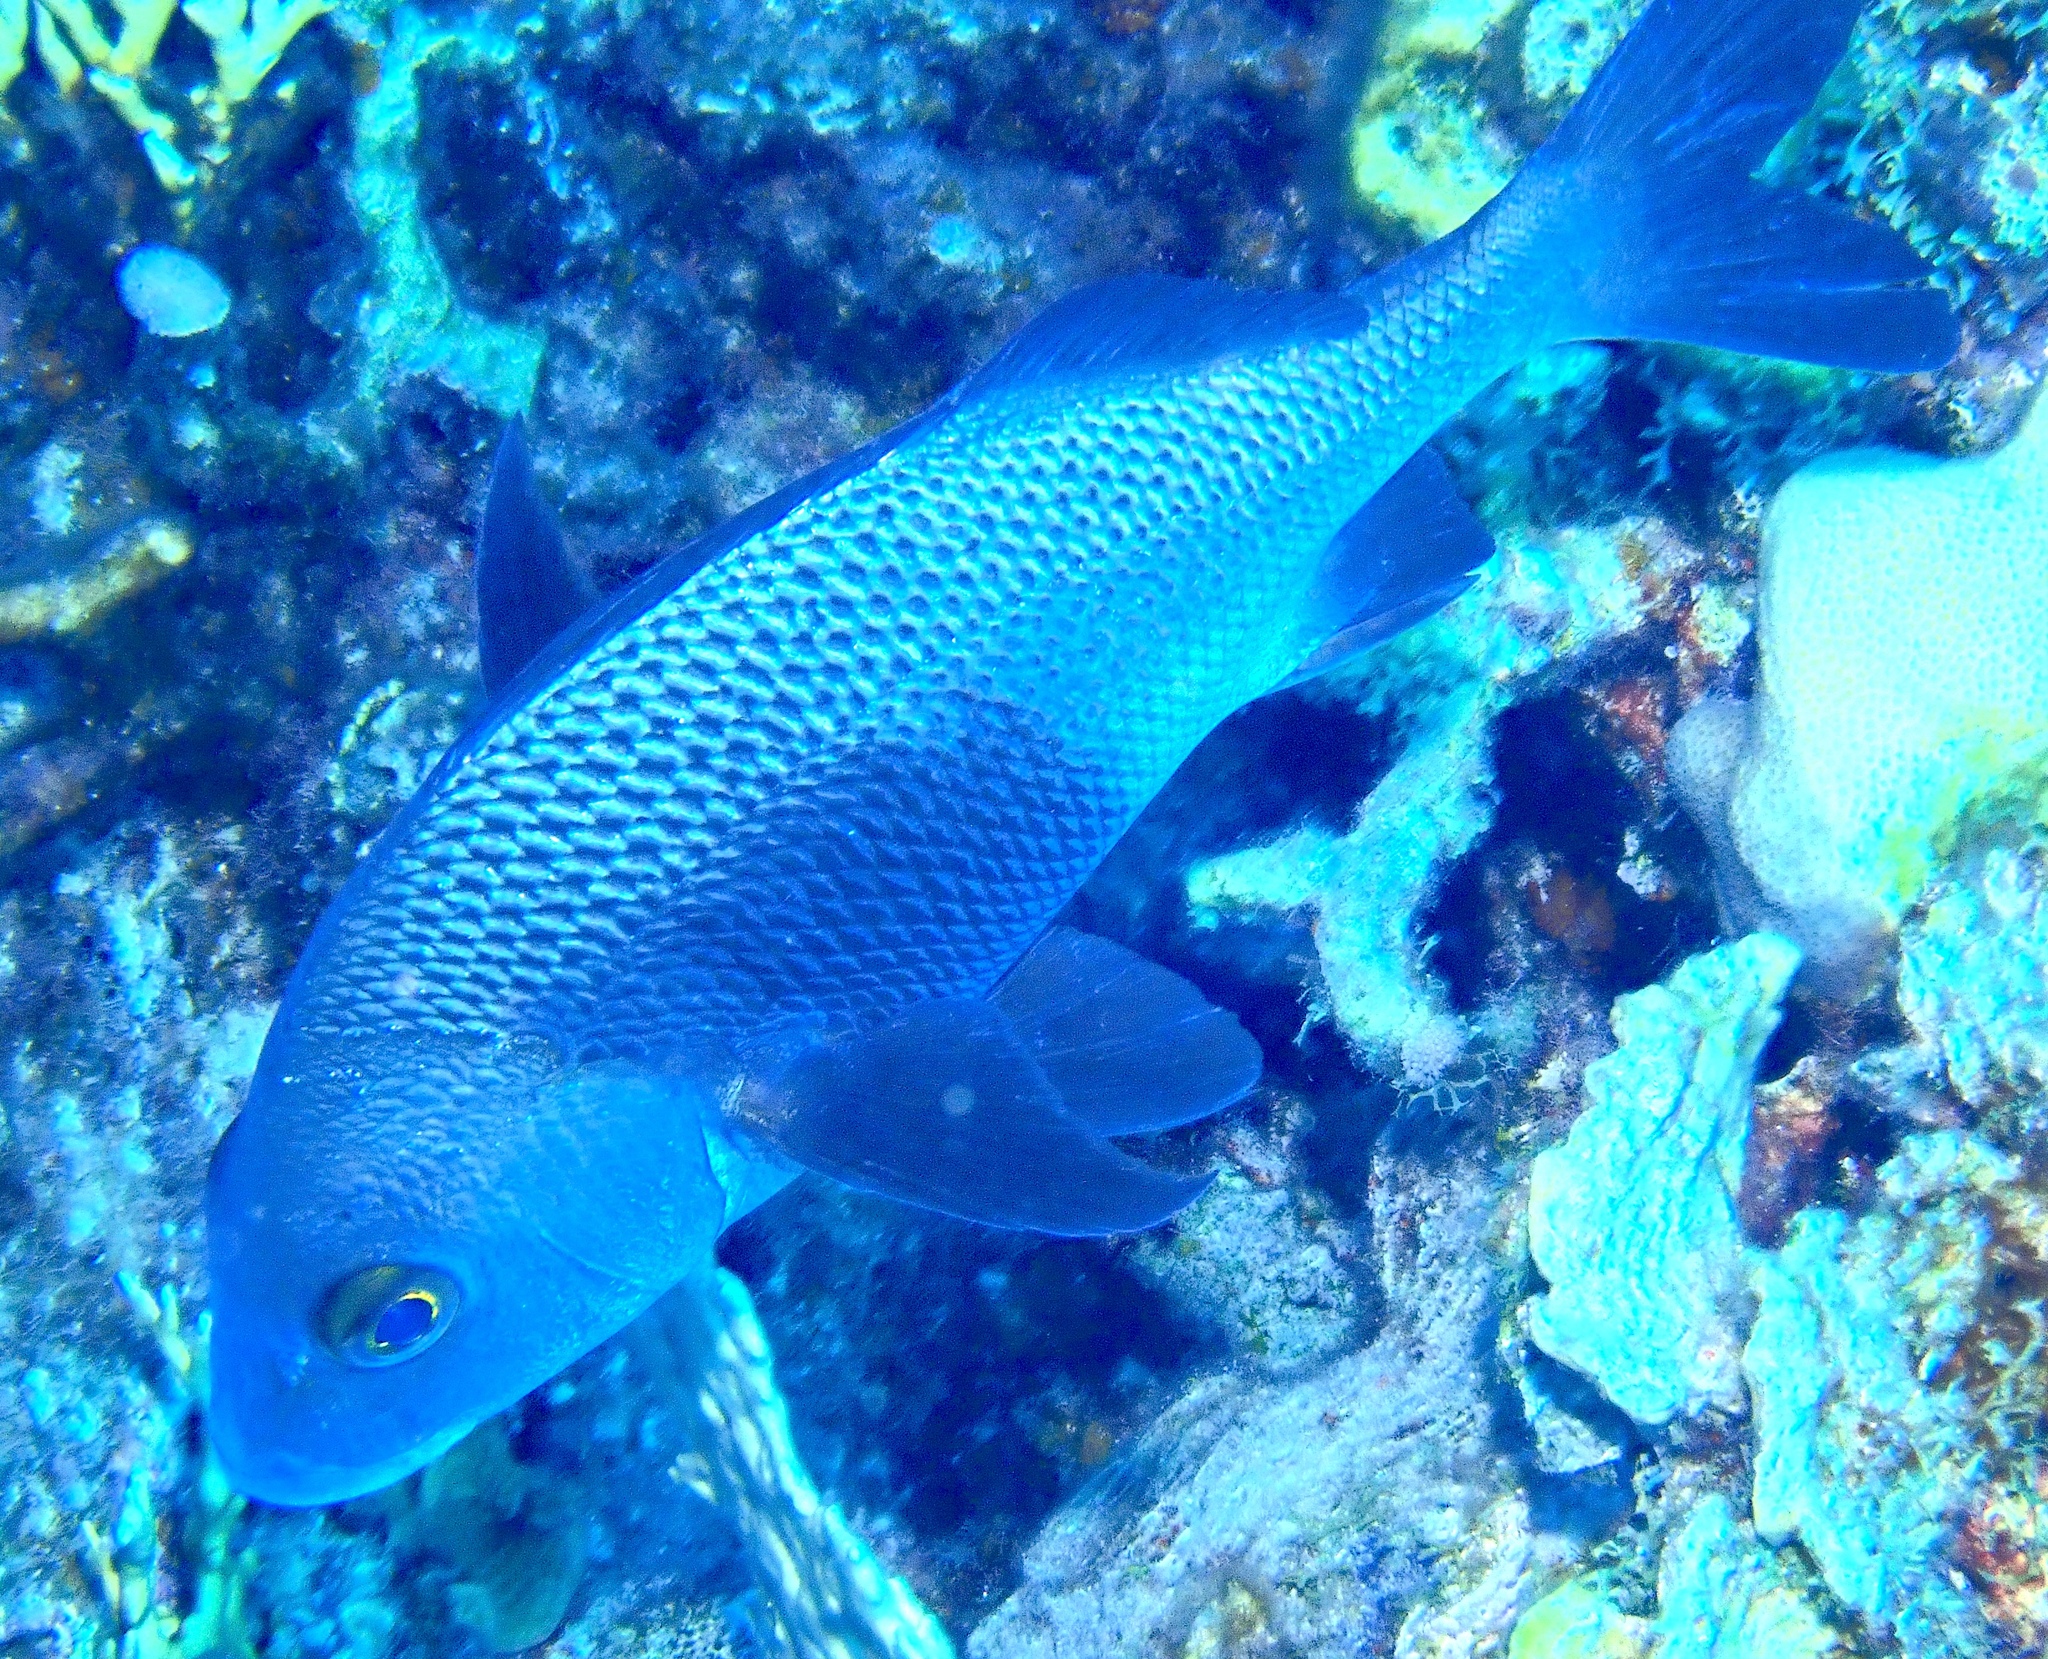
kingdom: Animalia
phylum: Chordata
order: Perciformes
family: Haemulidae
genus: Anisotremus
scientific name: Anisotremus surinamensis
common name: Black margate
